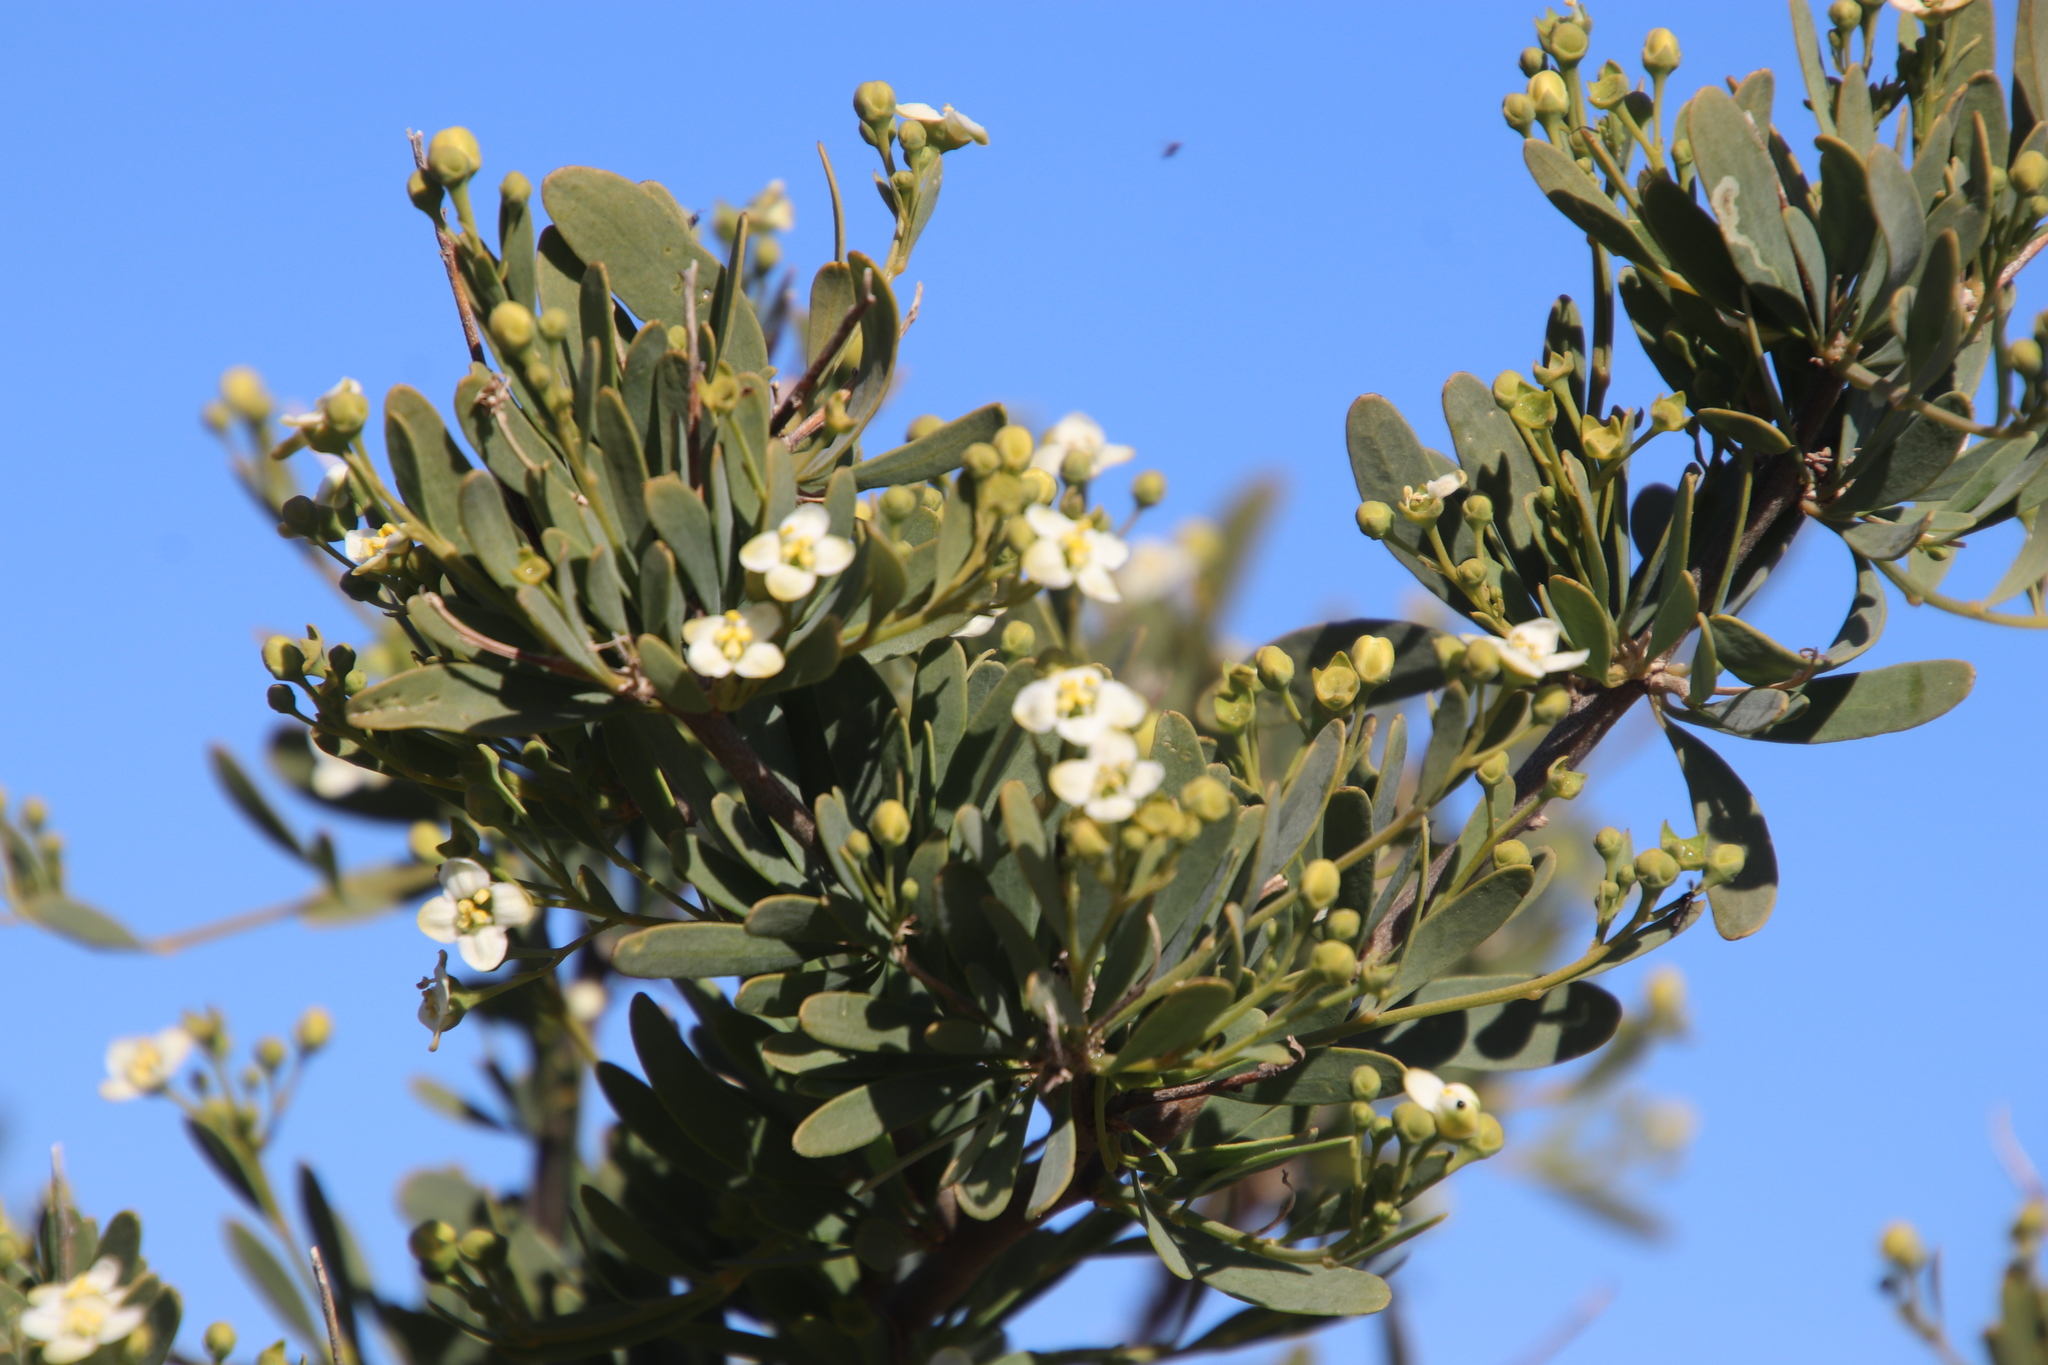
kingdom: Plantae
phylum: Tracheophyta
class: Magnoliopsida
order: Solanales
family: Montiniaceae
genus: Montinia
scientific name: Montinia caryophyllacea
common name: Wild clove-bush
